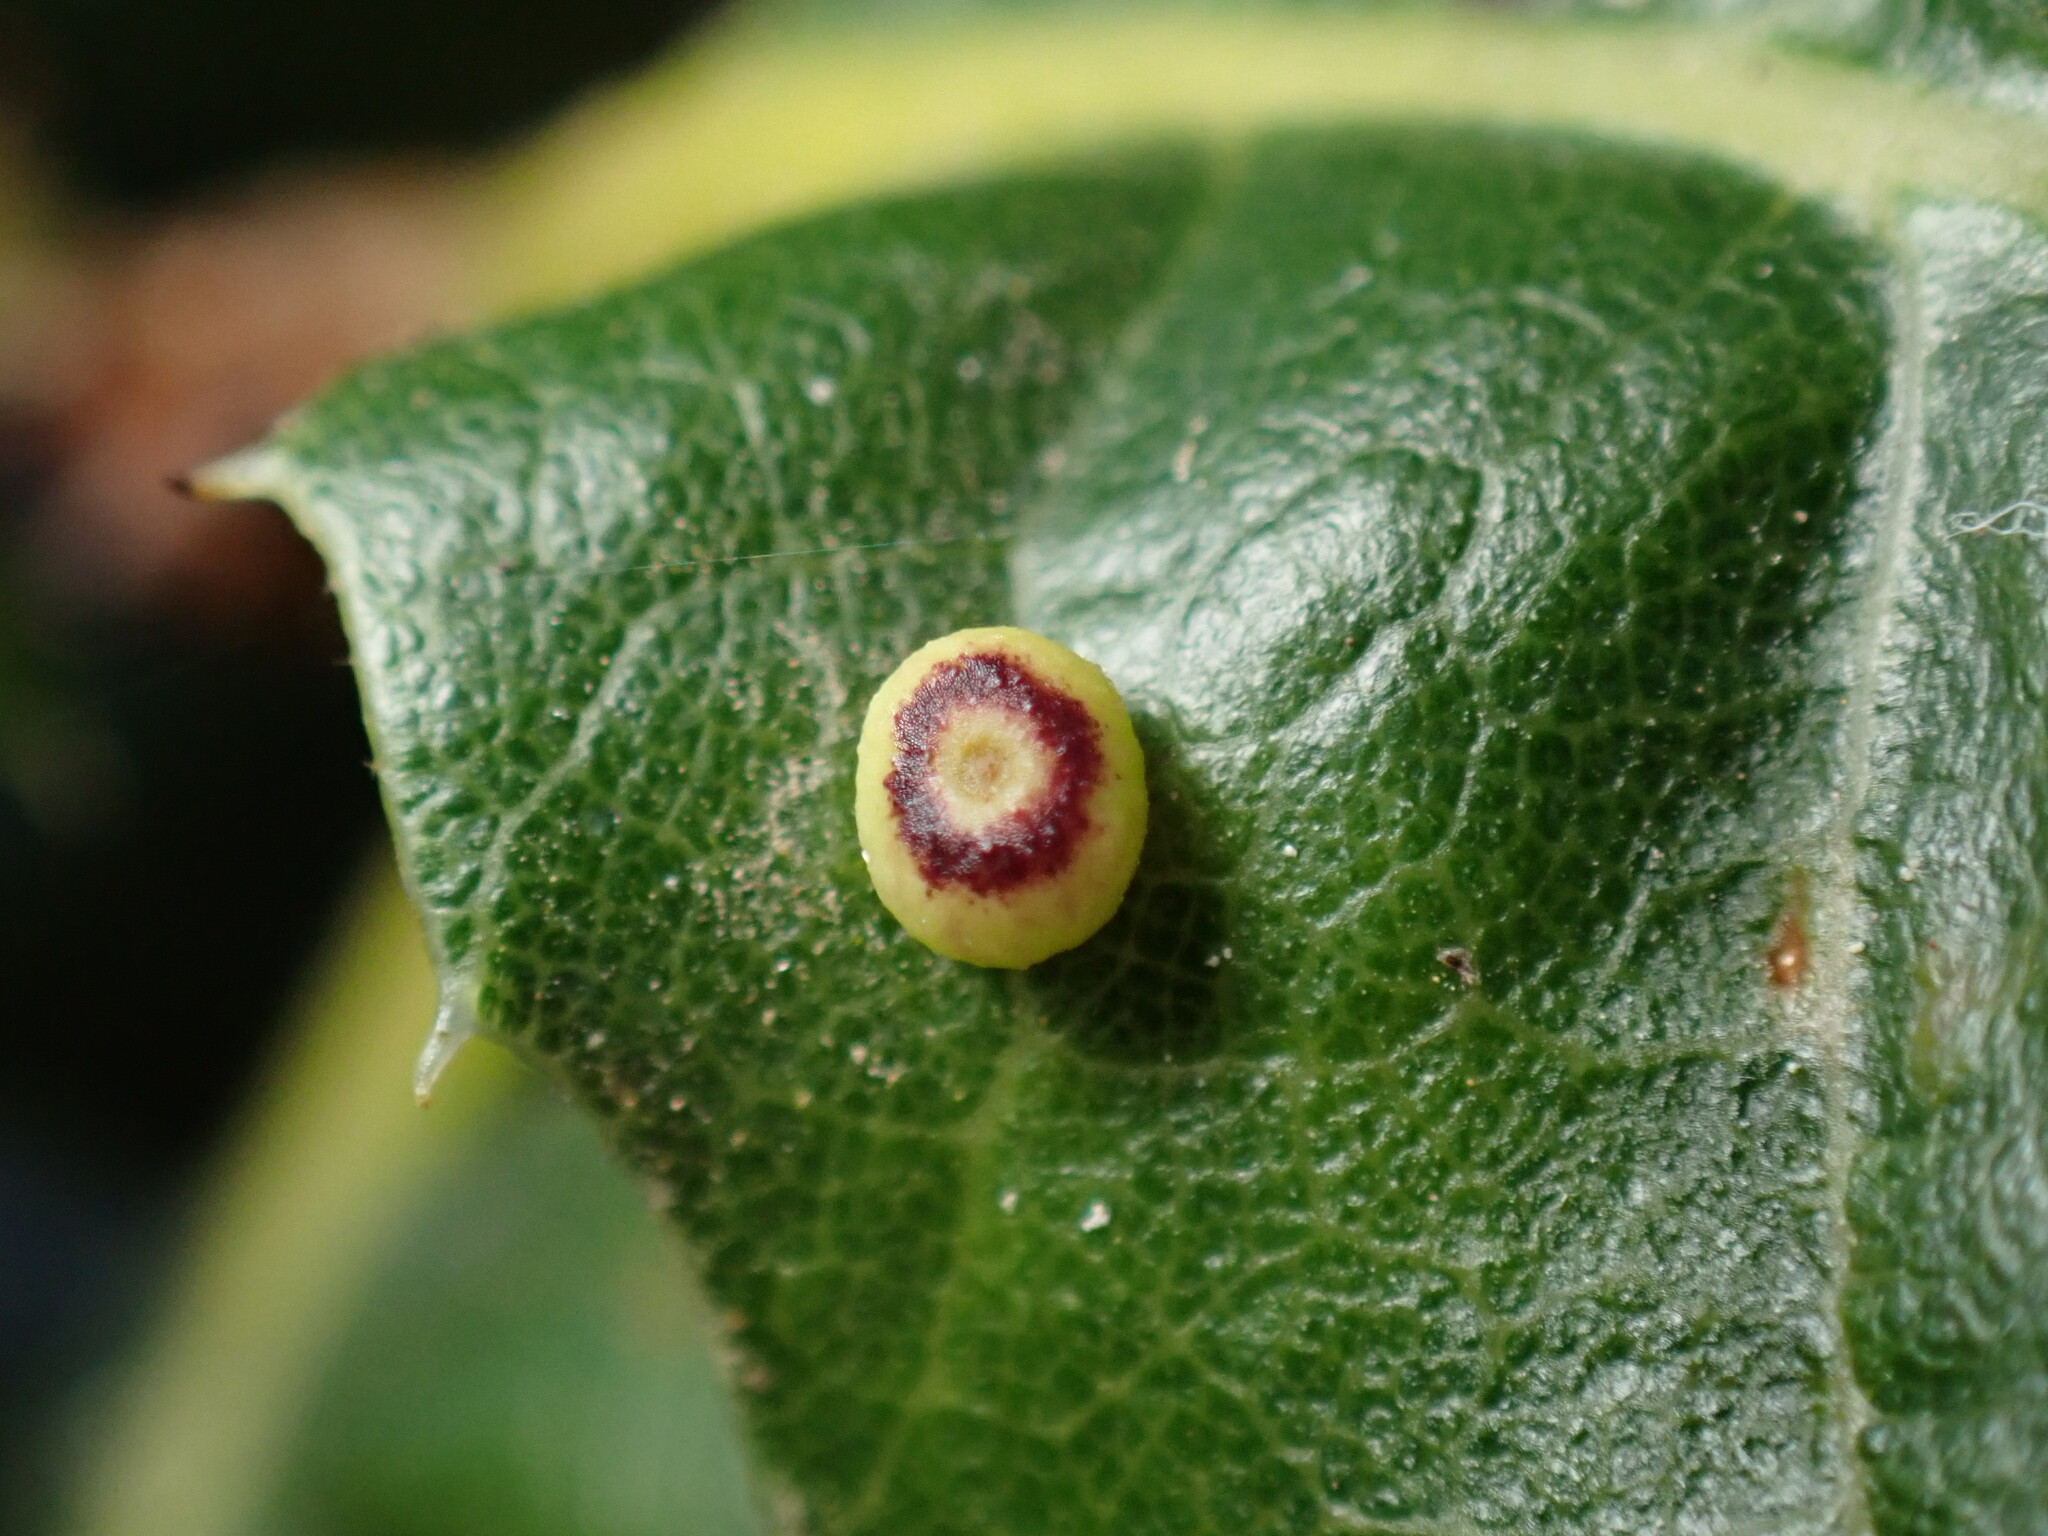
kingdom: Animalia
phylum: Arthropoda
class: Insecta
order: Hymenoptera
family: Cynipidae
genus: Dryocosmus
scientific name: Dryocosmus
